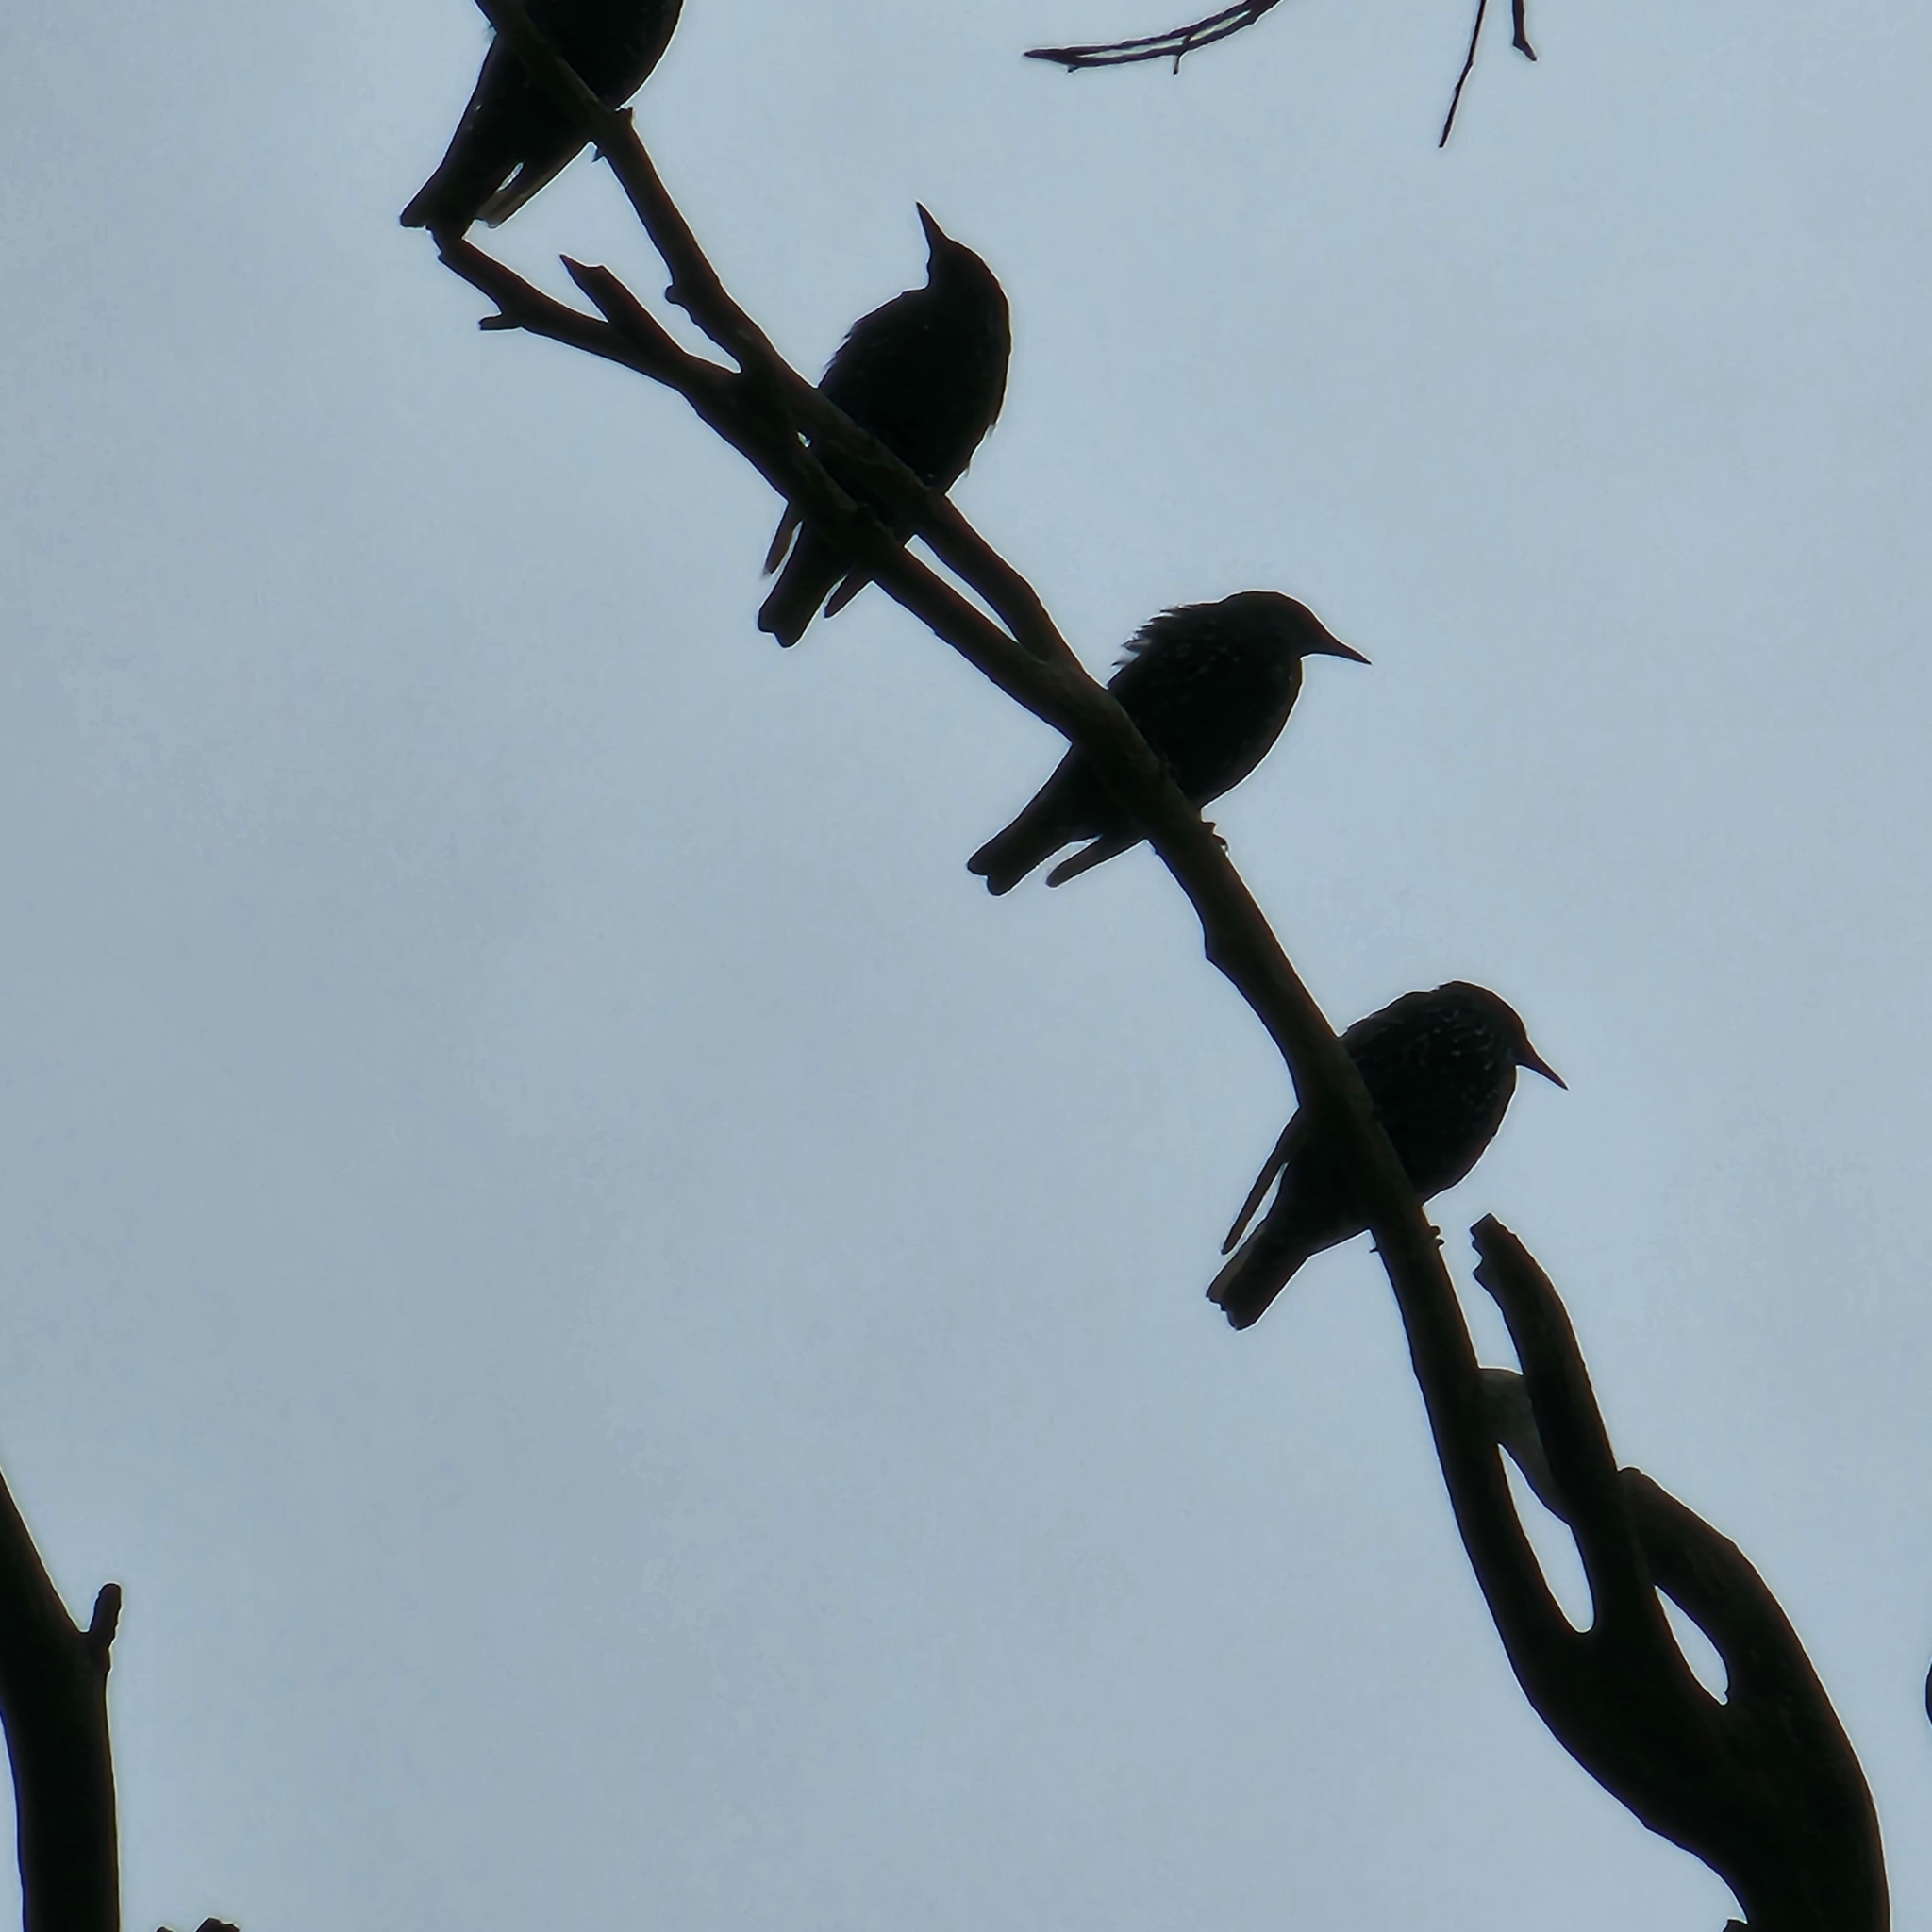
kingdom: Animalia
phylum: Chordata
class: Aves
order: Passeriformes
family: Sturnidae
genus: Sturnus
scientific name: Sturnus vulgaris
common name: Common starling
